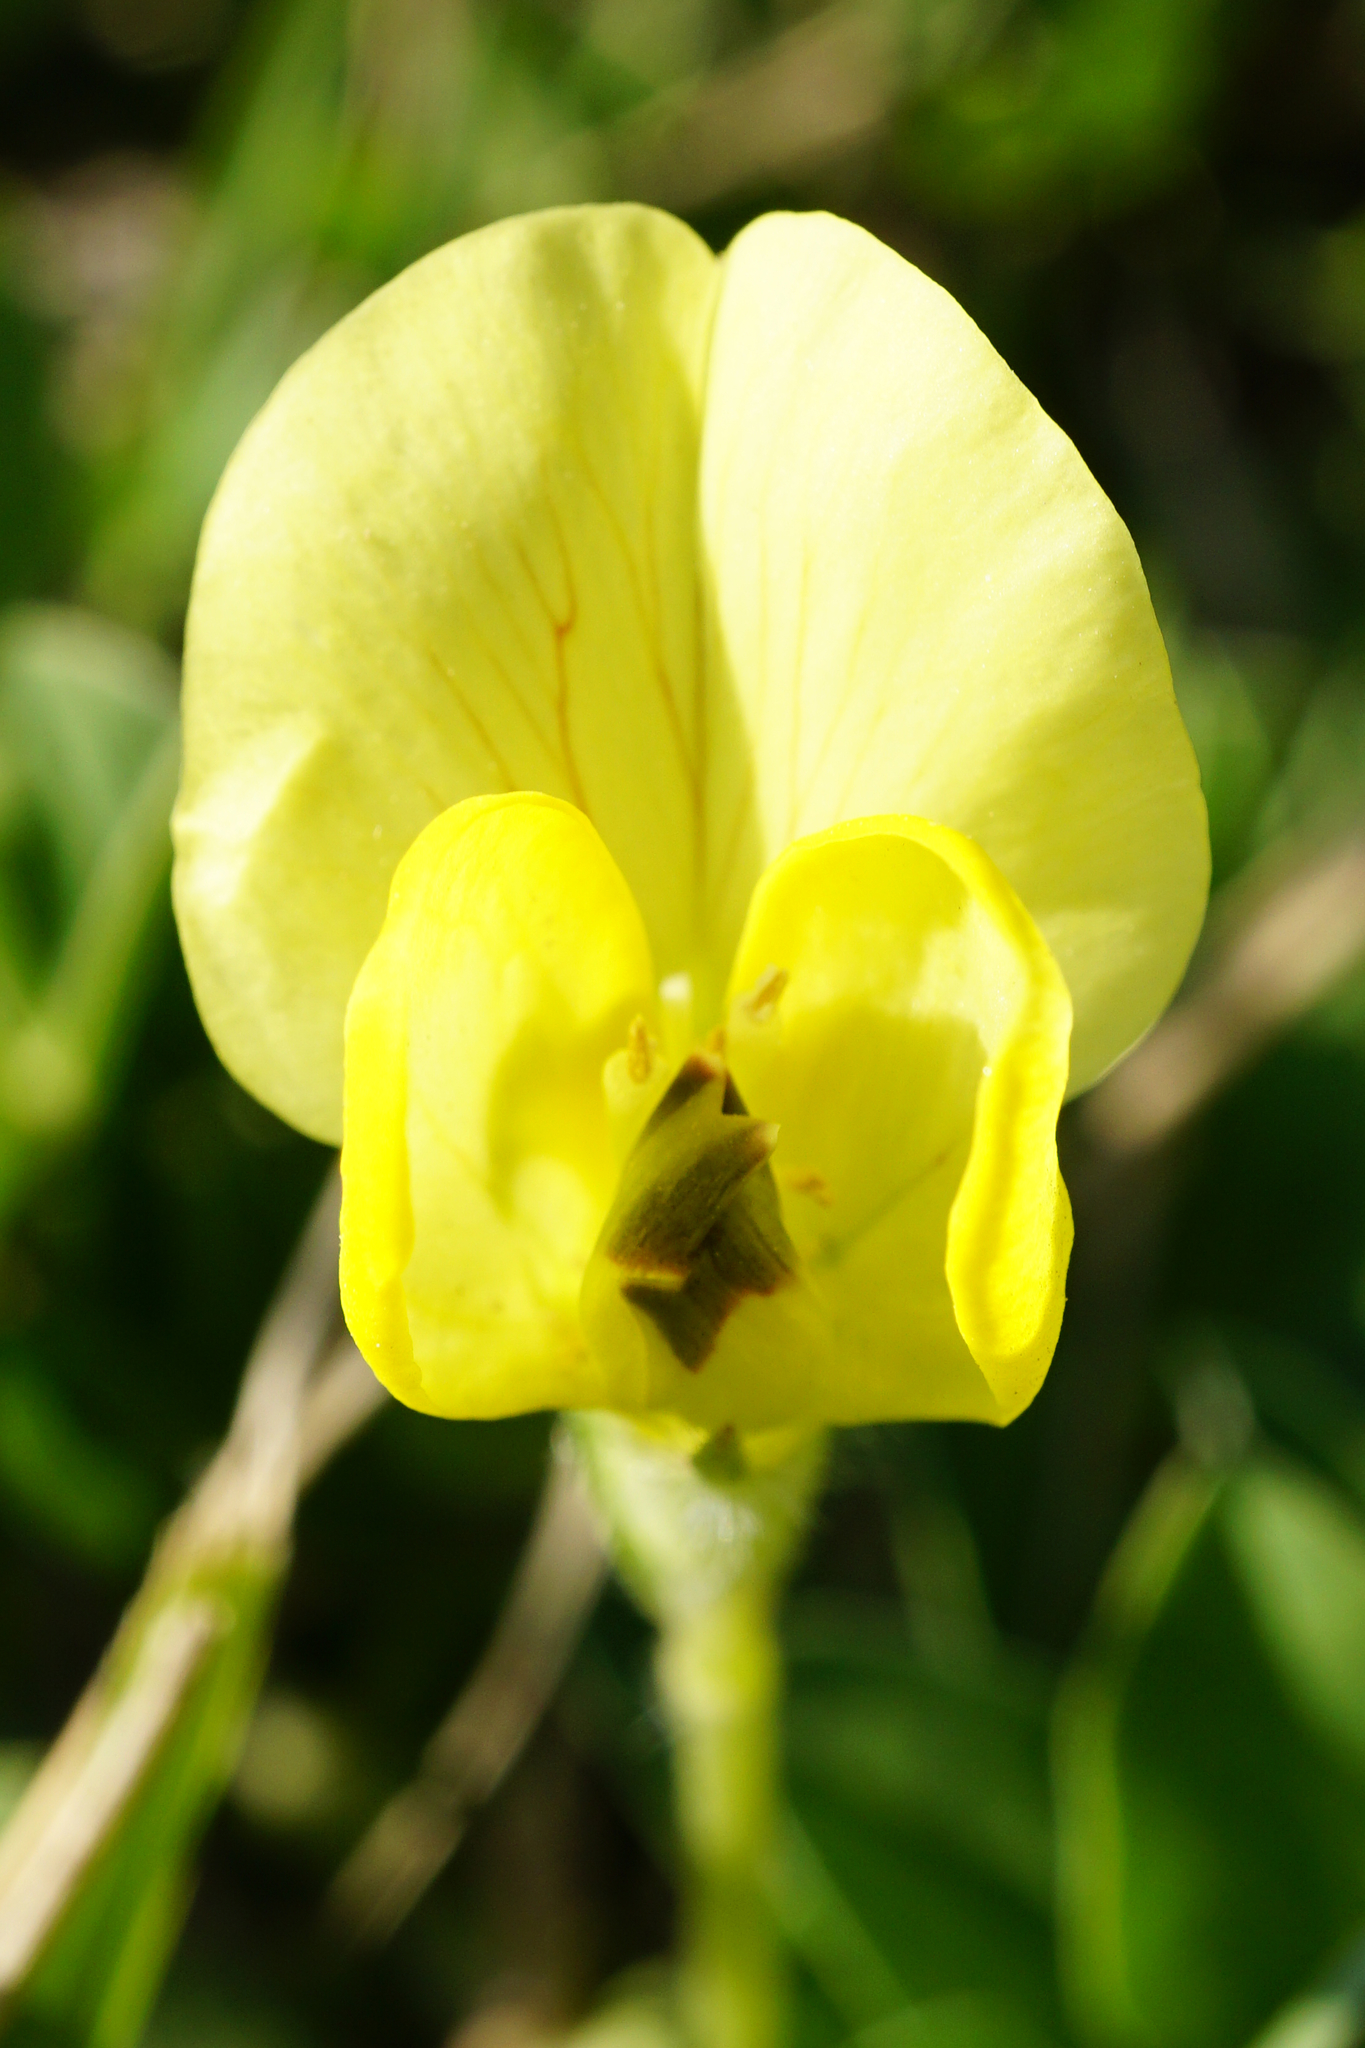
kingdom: Plantae
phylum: Tracheophyta
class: Magnoliopsida
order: Fabales
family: Fabaceae
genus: Lotus
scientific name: Lotus maritimus
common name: Dragon's-teeth
